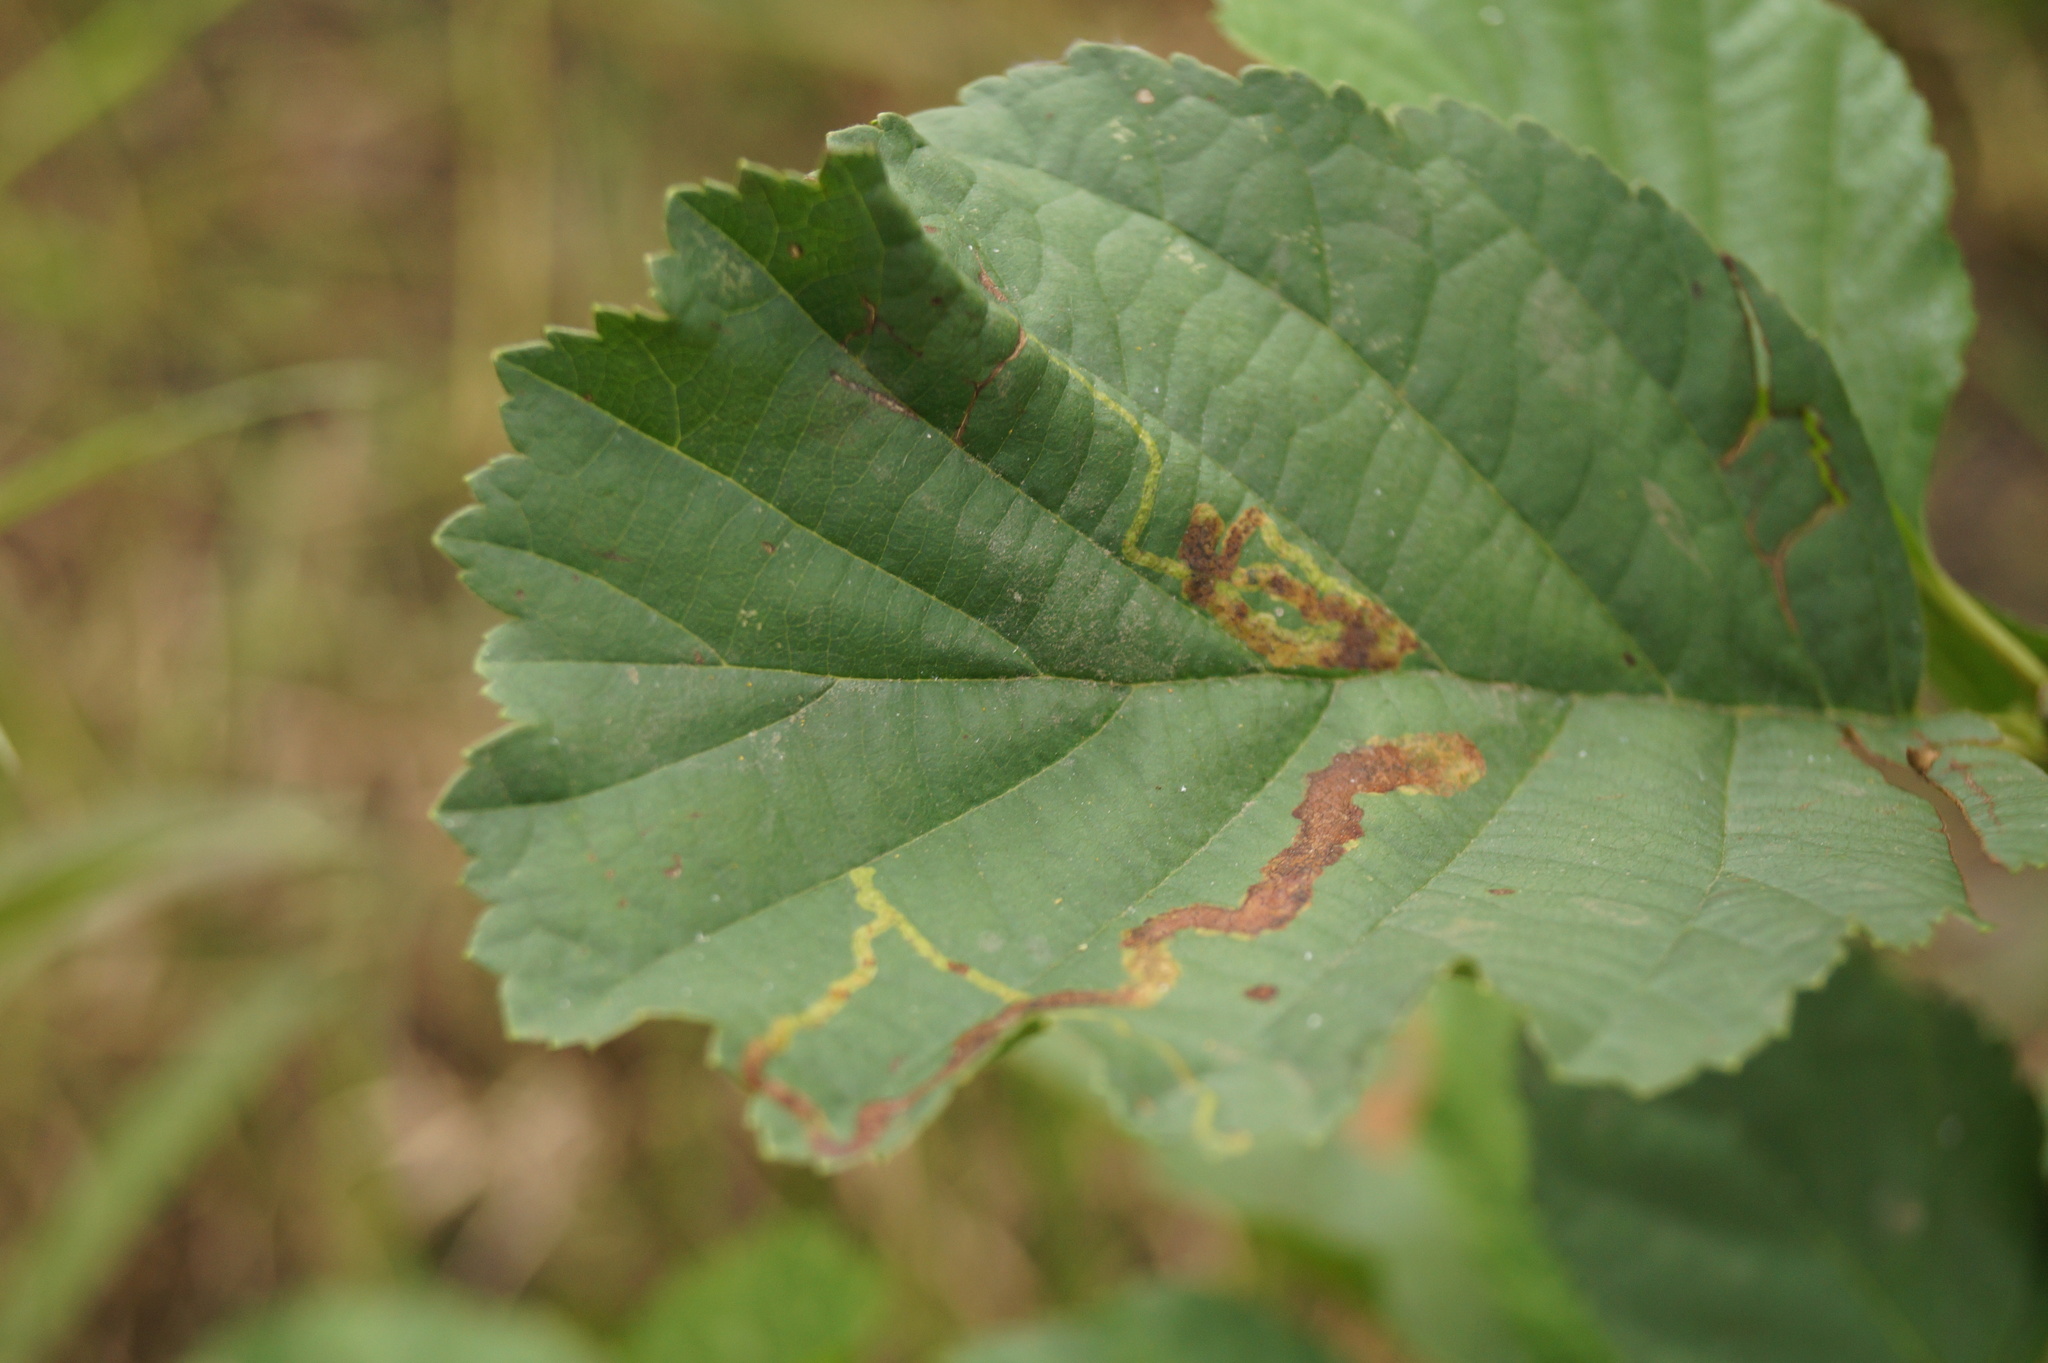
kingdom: Animalia
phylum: Arthropoda
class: Insecta
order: Diptera
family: Agromyzidae
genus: Agromyza
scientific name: Agromyza alnivora
